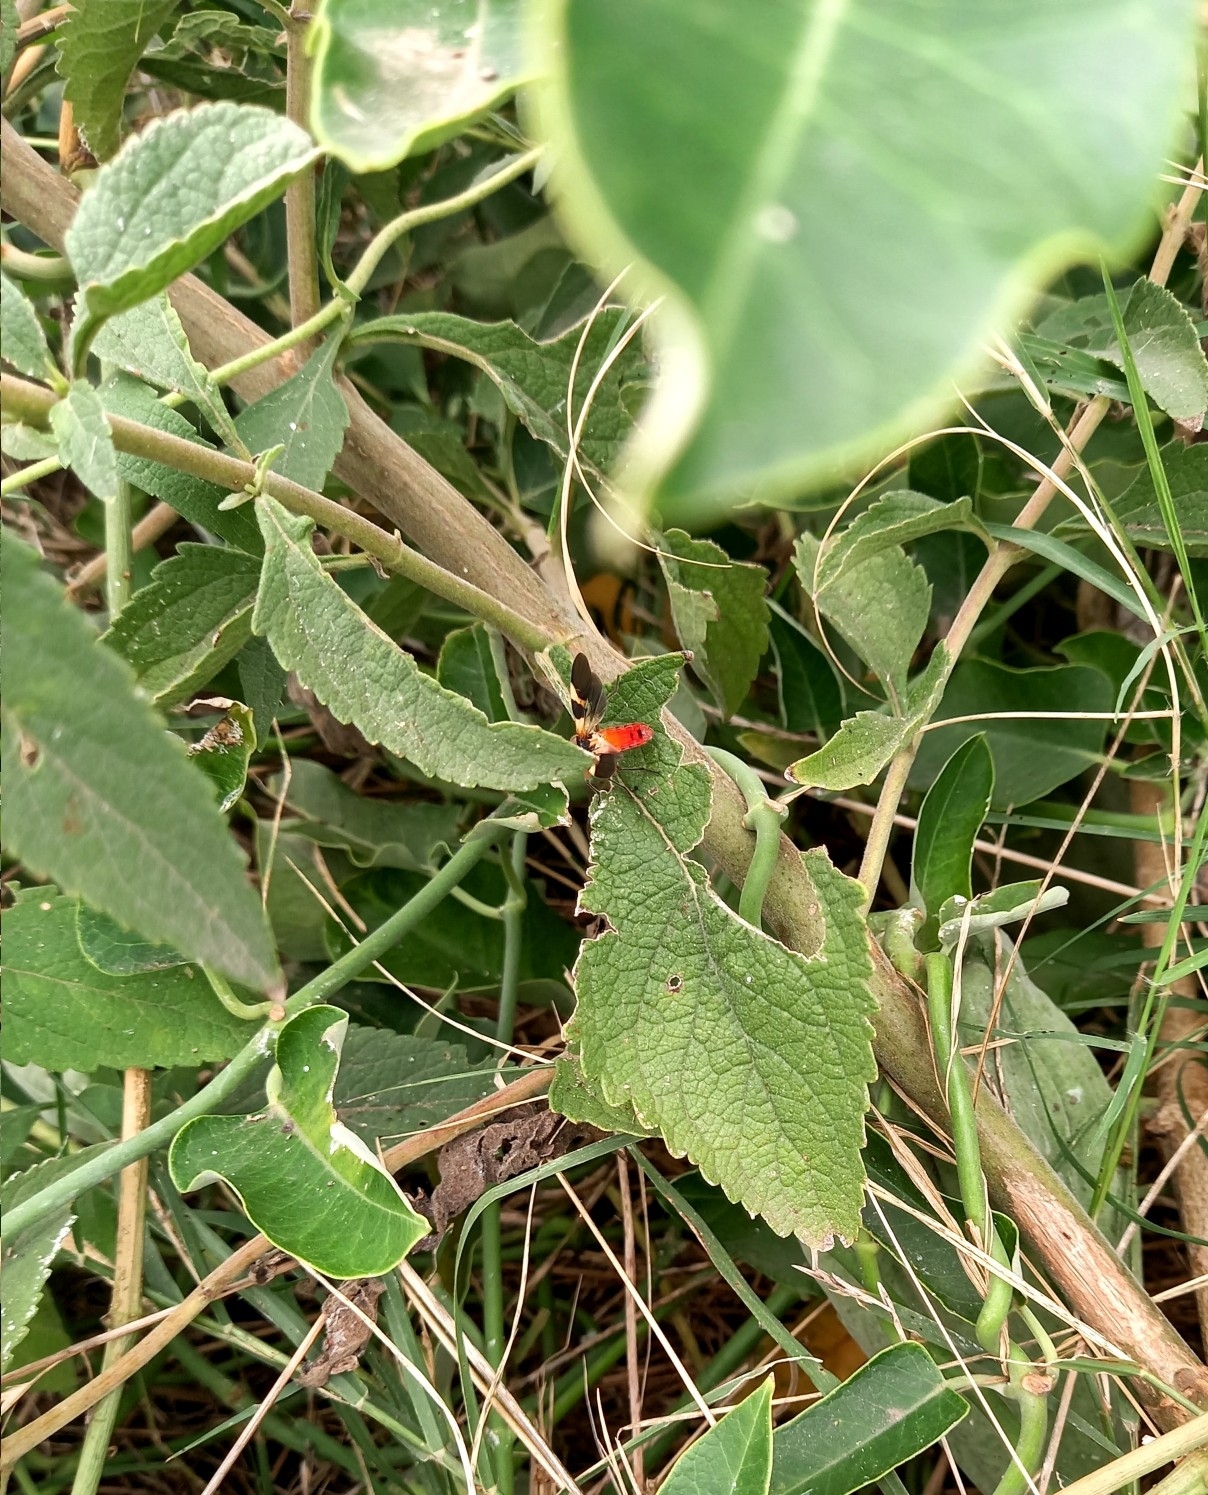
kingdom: Animalia
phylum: Arthropoda
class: Insecta
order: Hemiptera
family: Lygaeidae
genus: Oncopeltus
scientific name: Oncopeltus unifasciatellus
